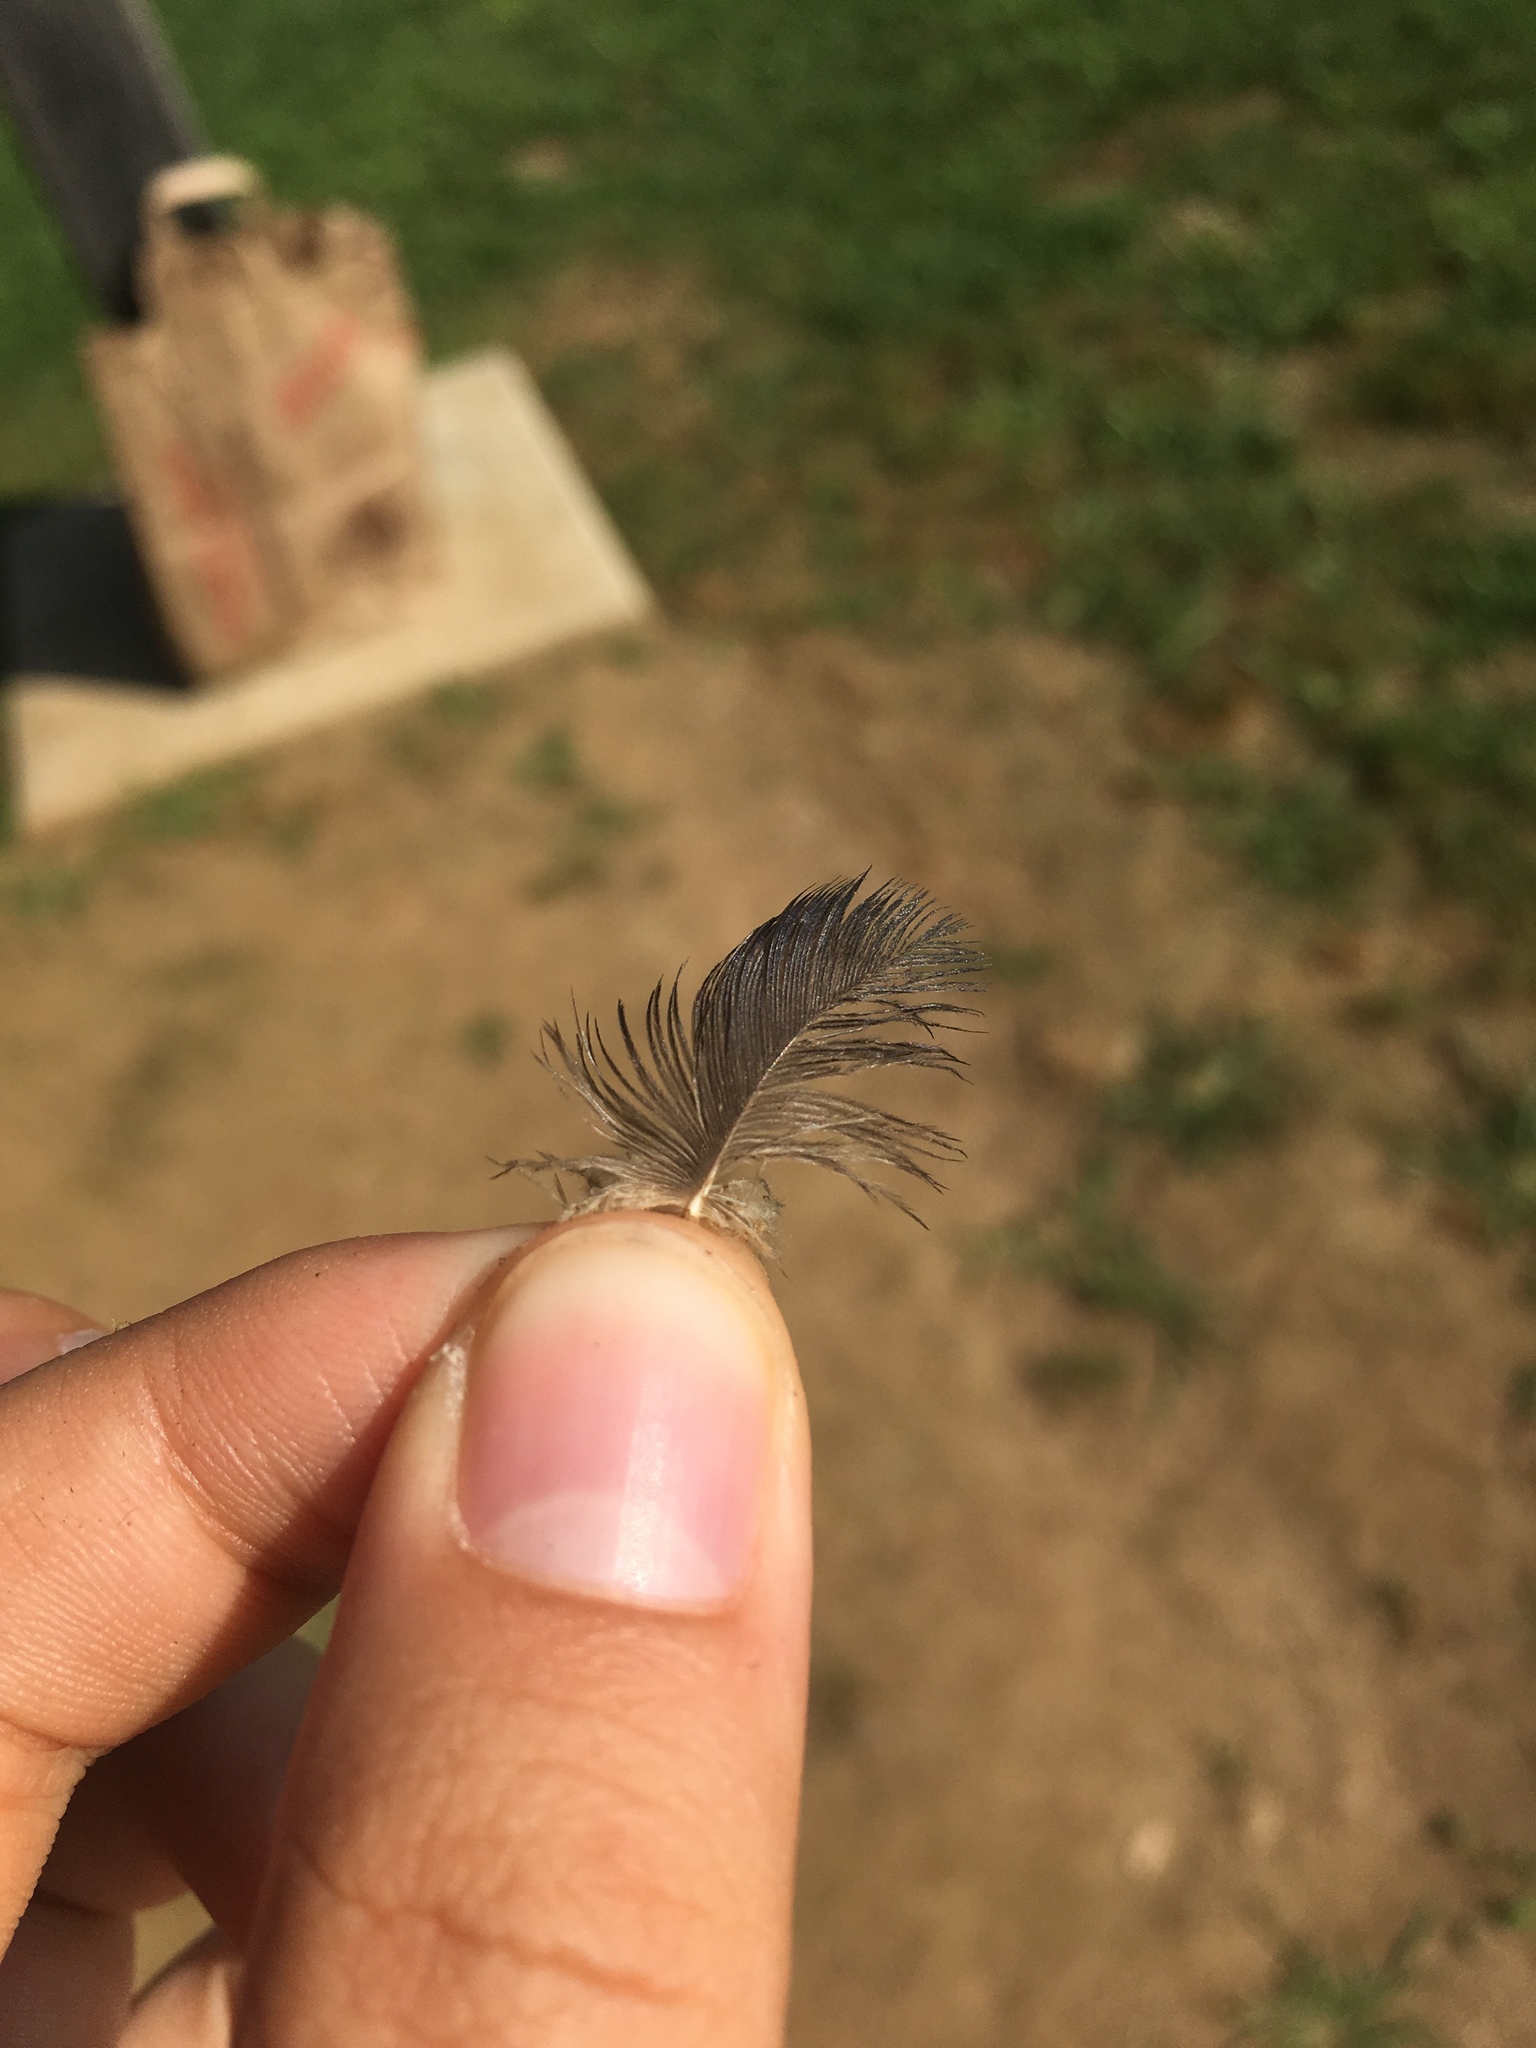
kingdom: Animalia
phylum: Chordata
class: Aves
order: Passeriformes
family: Hirundinidae
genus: Progne
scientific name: Progne subis
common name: Purple martin
